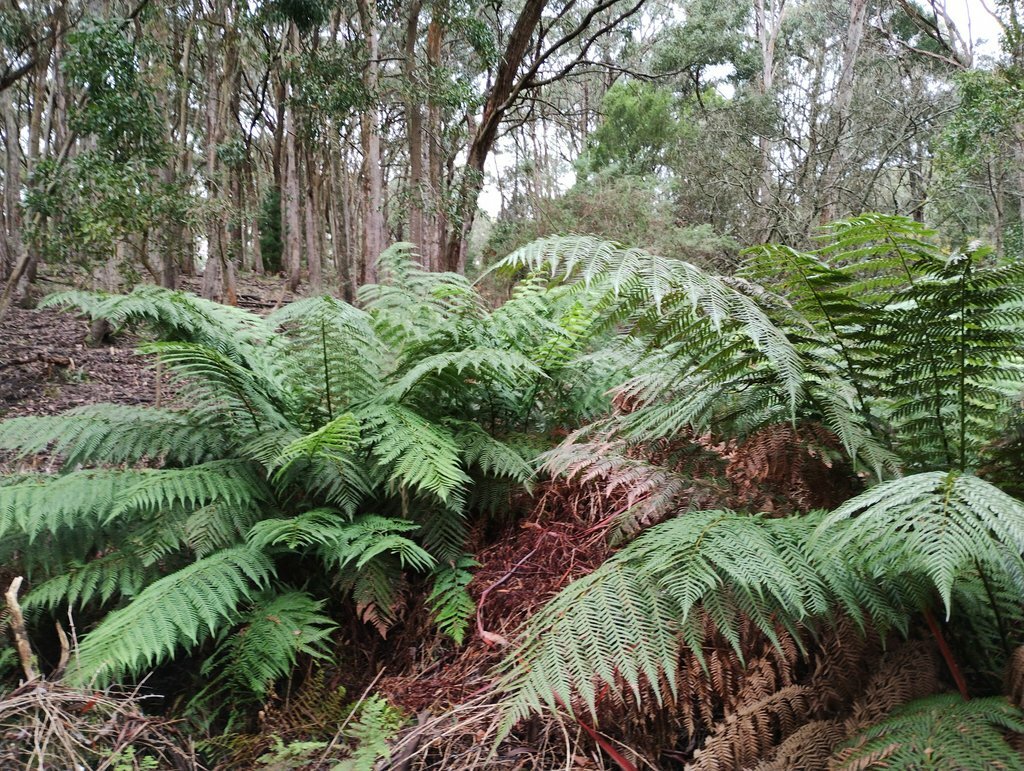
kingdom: Plantae
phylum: Tracheophyta
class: Polypodiopsida
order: Cyatheales
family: Cyatheaceae
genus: Alsophila
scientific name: Alsophila australis
